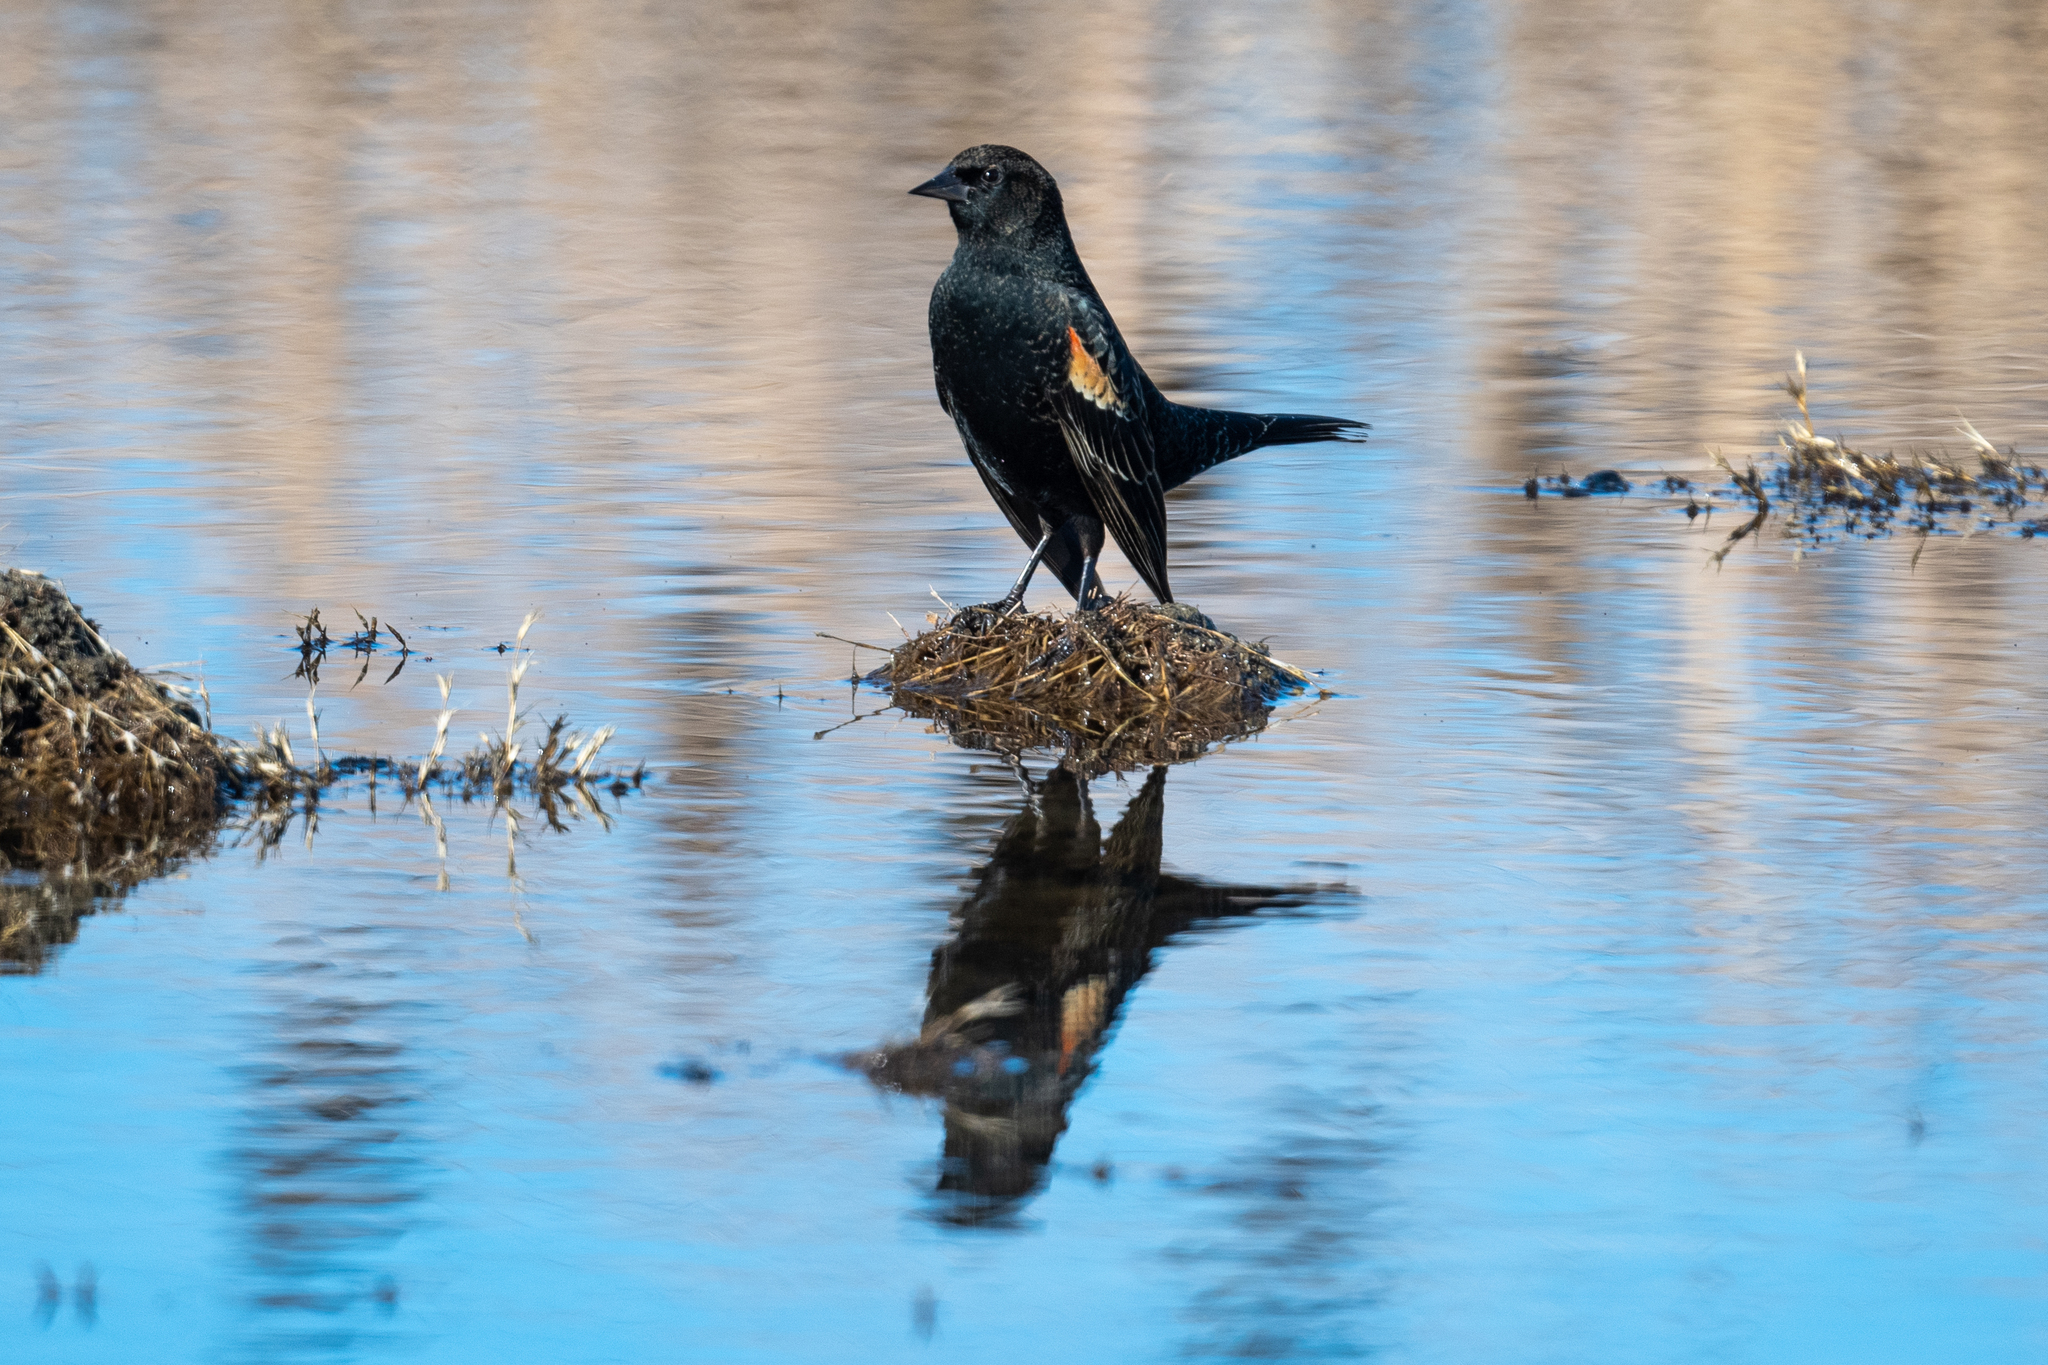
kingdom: Animalia
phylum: Chordata
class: Aves
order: Passeriformes
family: Icteridae
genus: Agelaius
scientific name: Agelaius phoeniceus
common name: Red-winged blackbird
